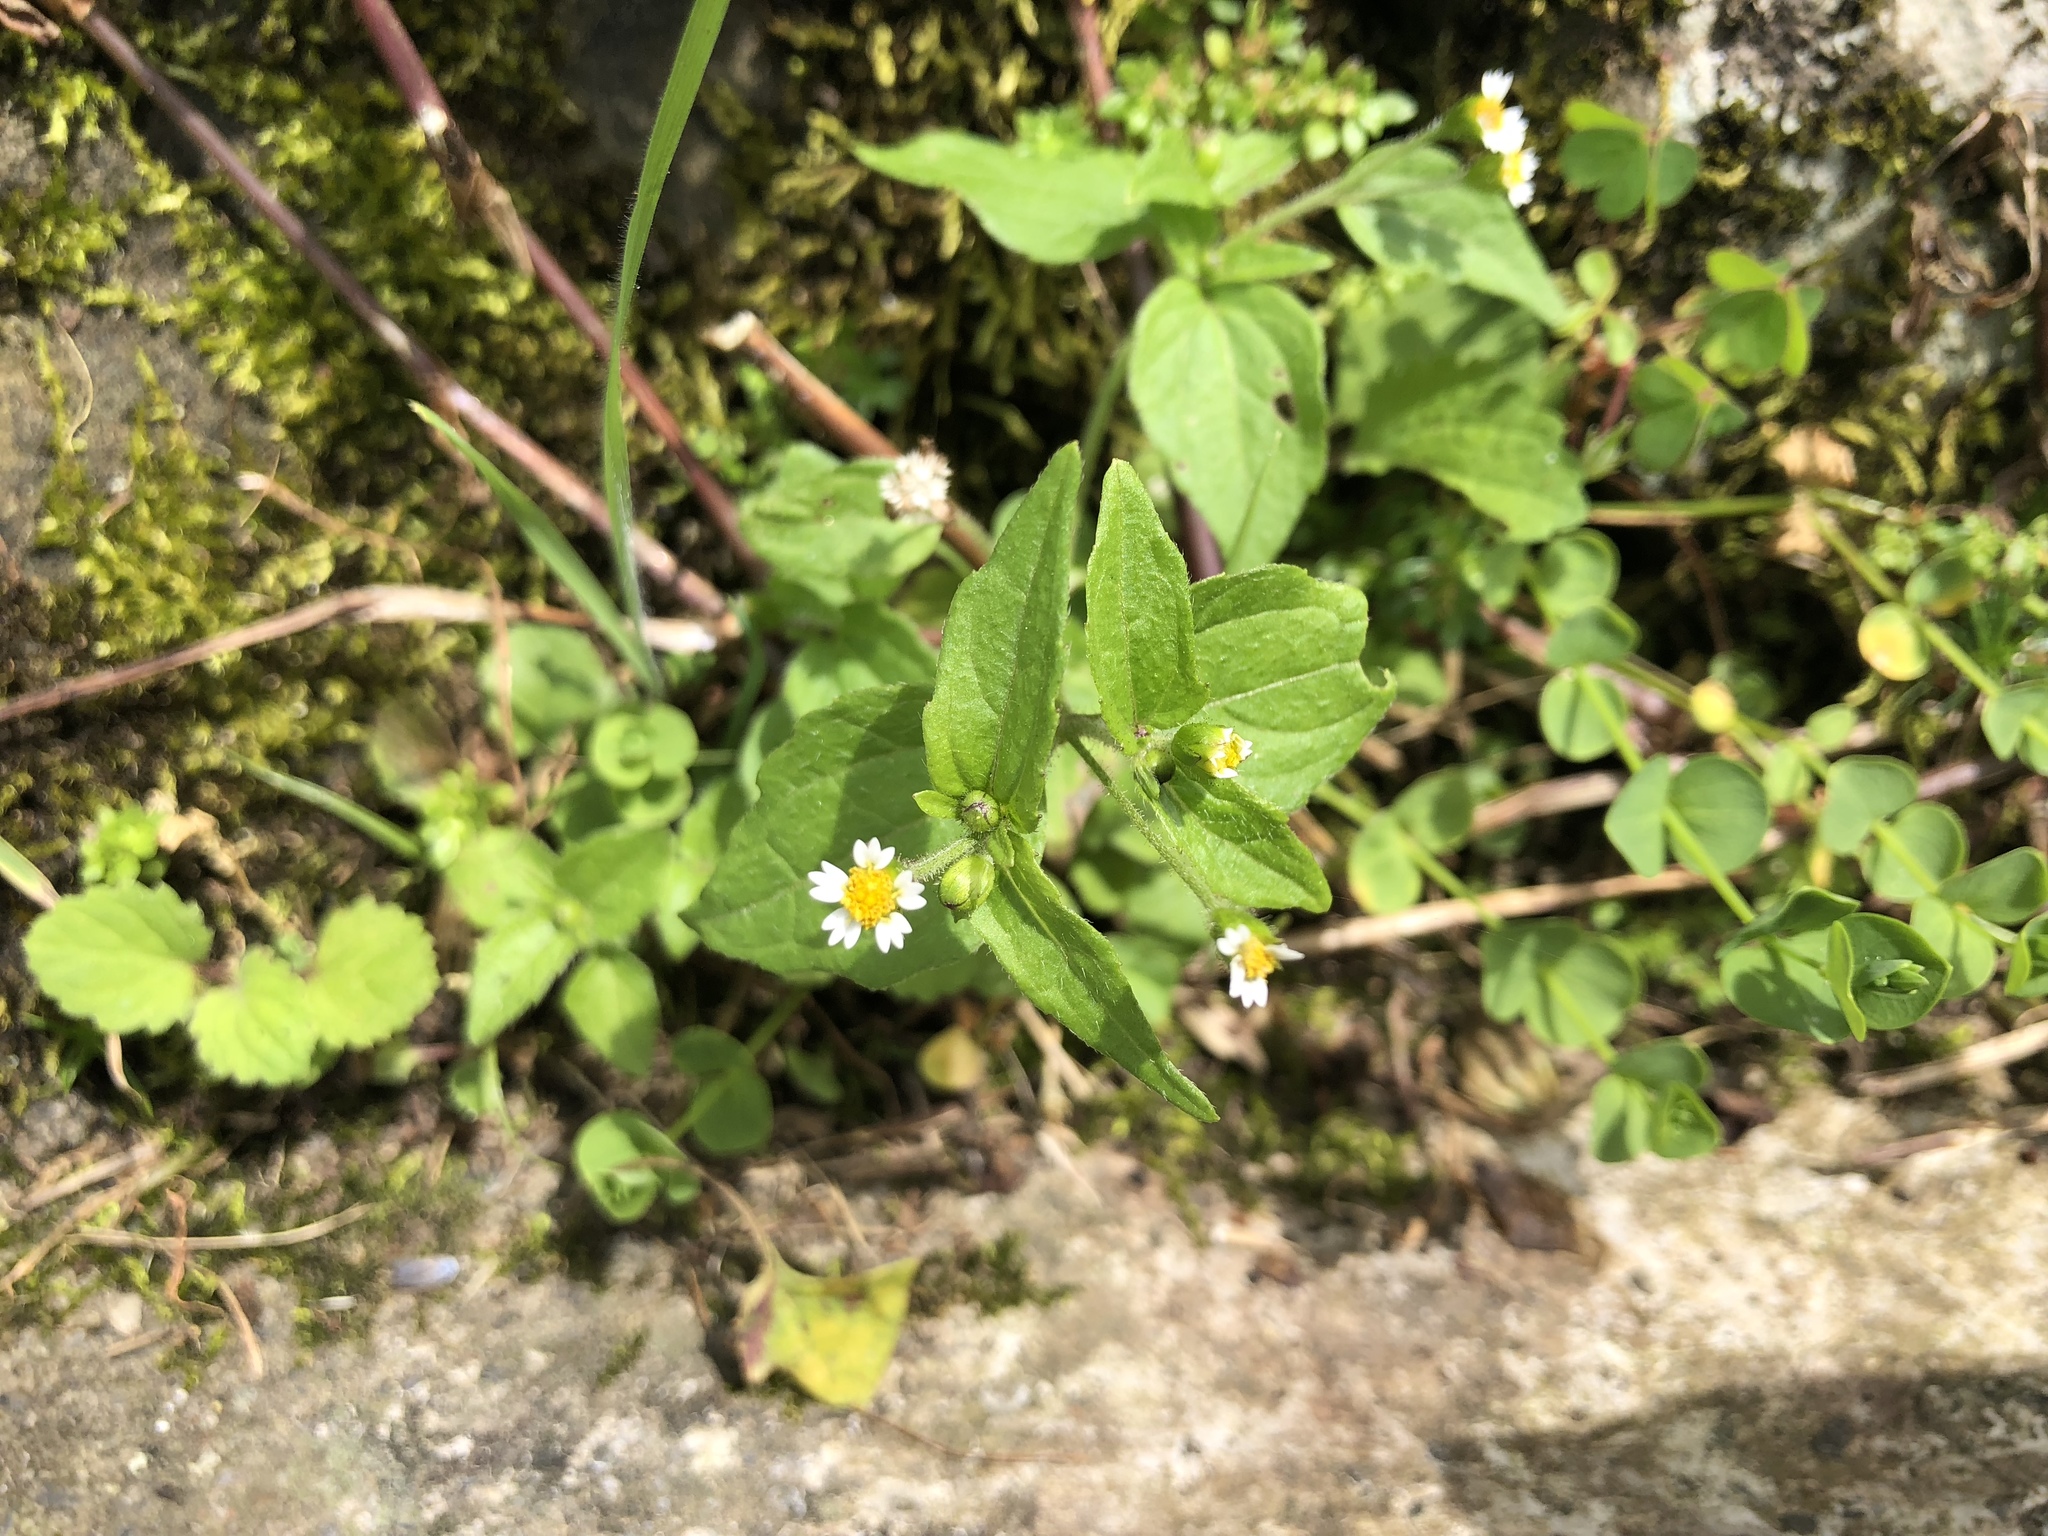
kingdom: Plantae
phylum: Tracheophyta
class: Magnoliopsida
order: Asterales
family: Asteraceae
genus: Galinsoga
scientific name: Galinsoga quadriradiata
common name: Shaggy soldier
